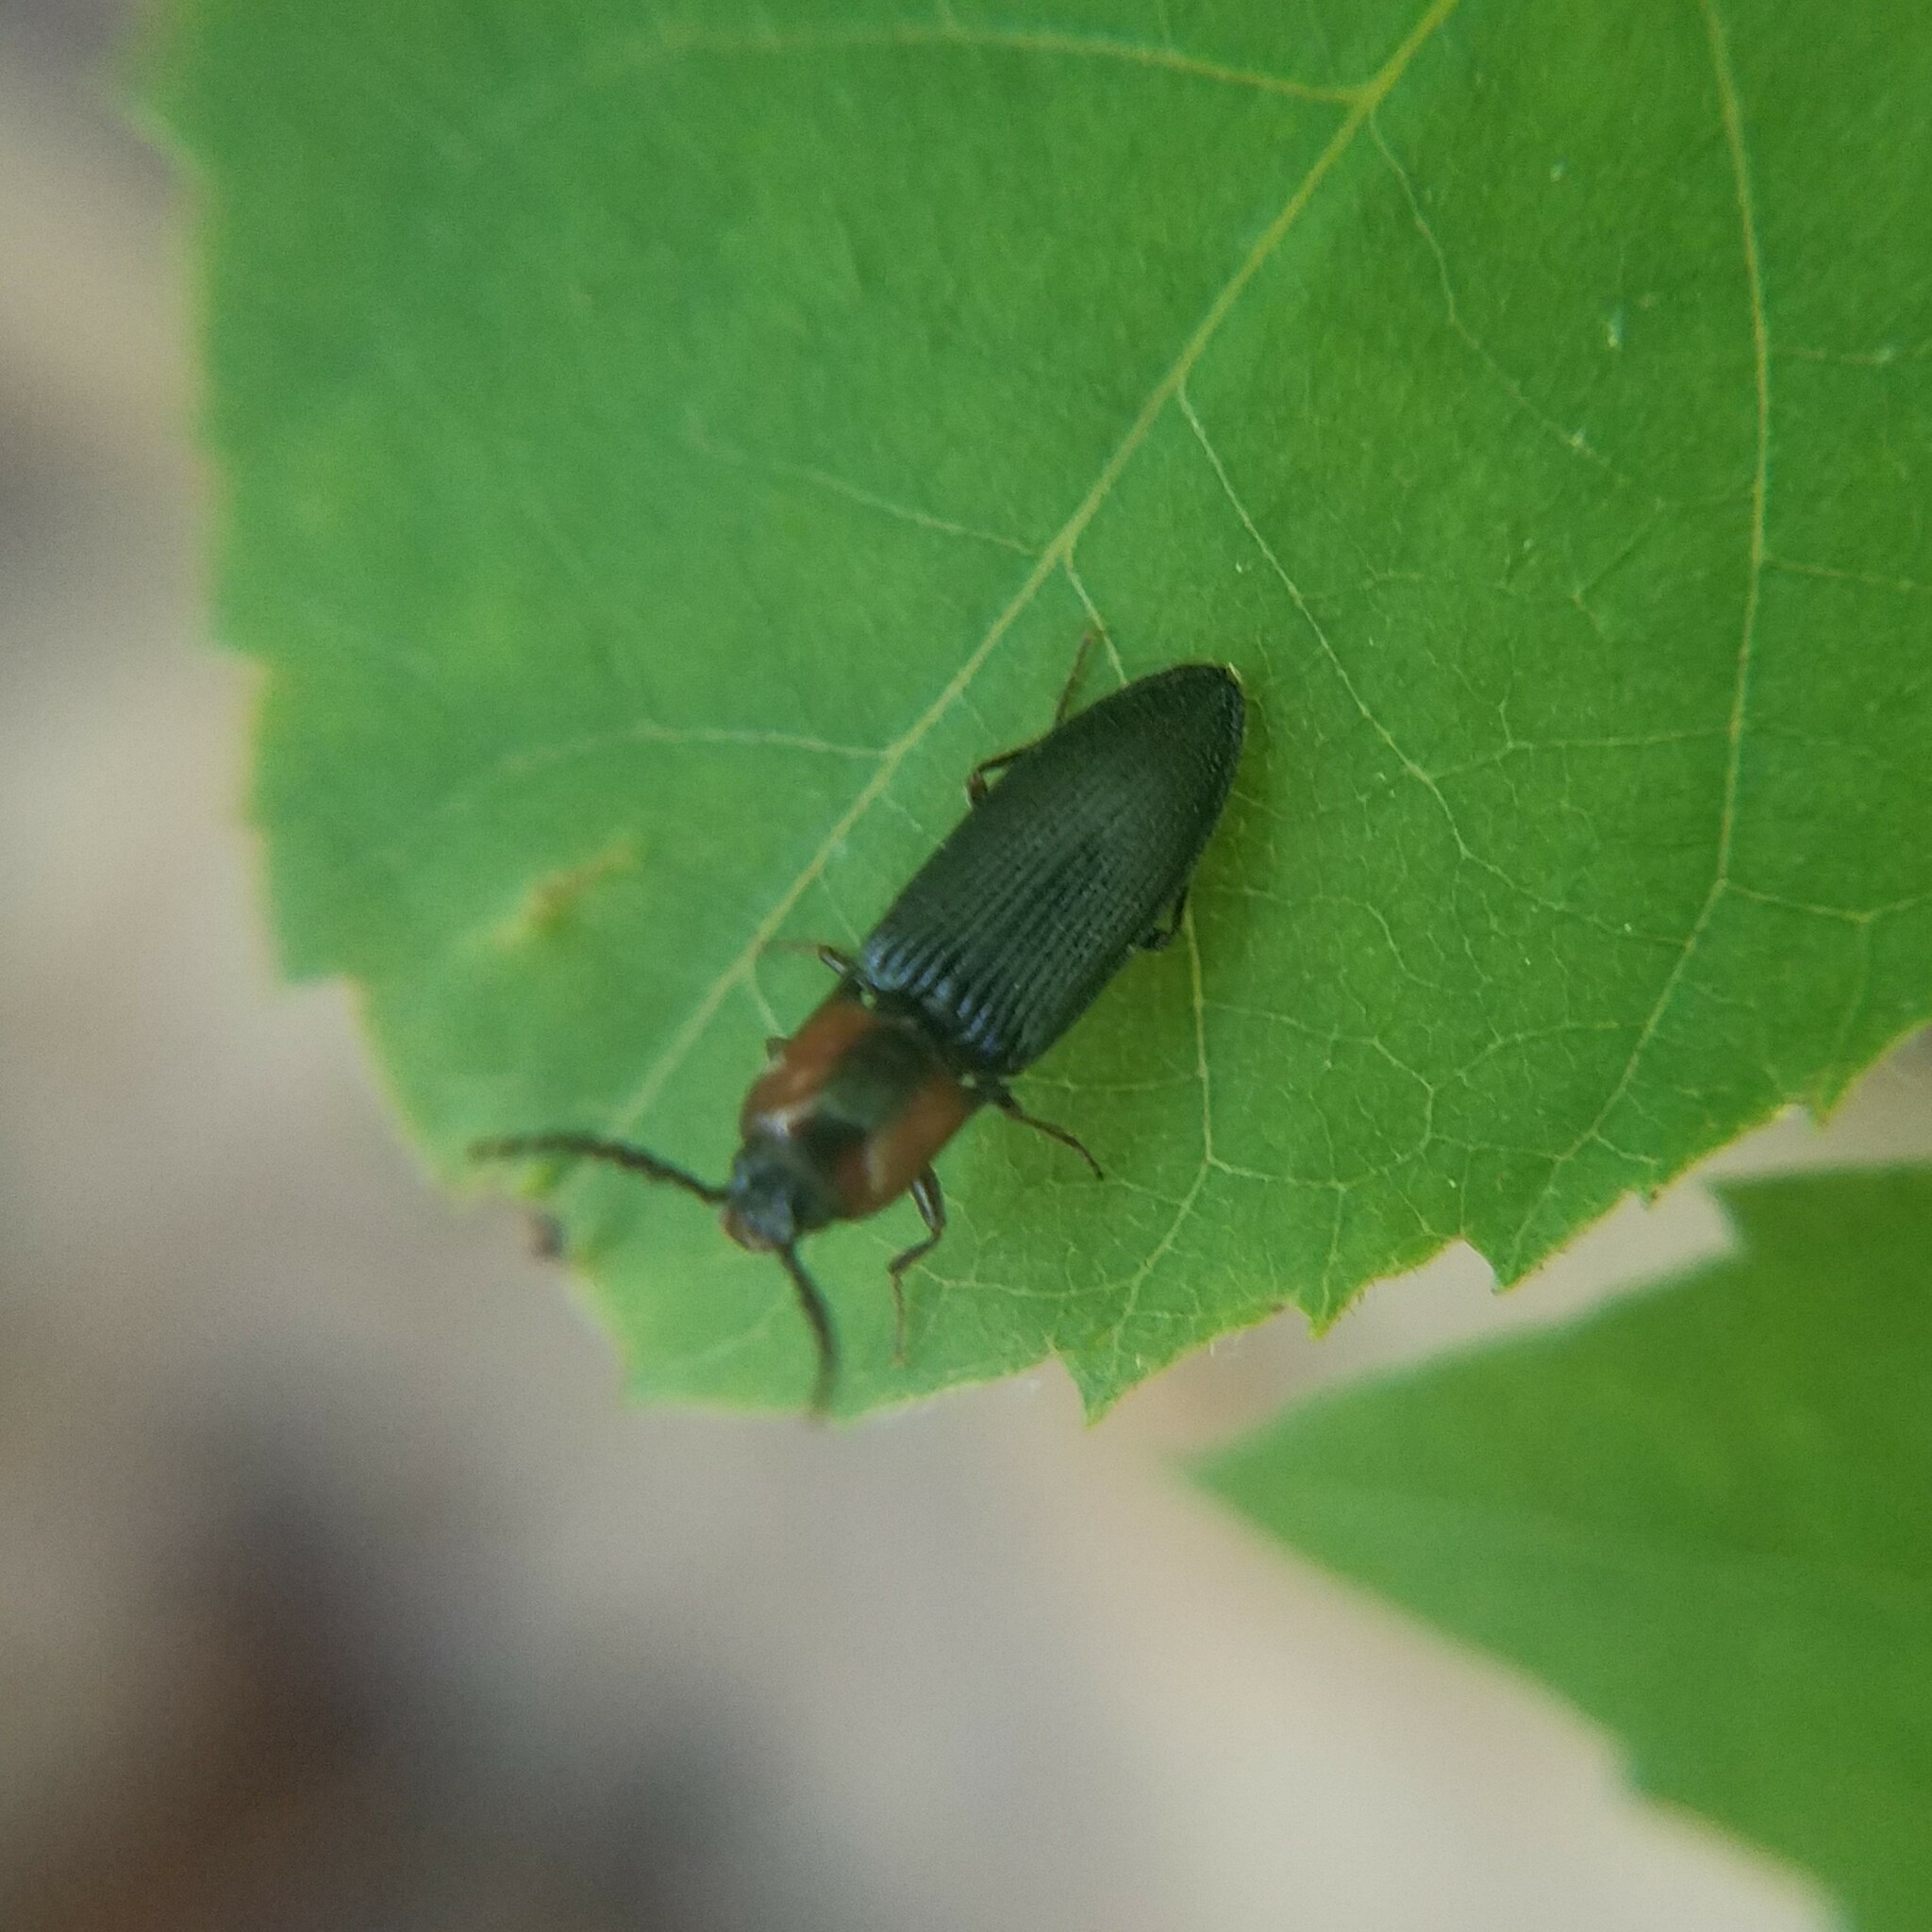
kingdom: Animalia
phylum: Arthropoda
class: Insecta
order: Coleoptera
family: Curculionidae
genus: Brownia
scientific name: Brownia
